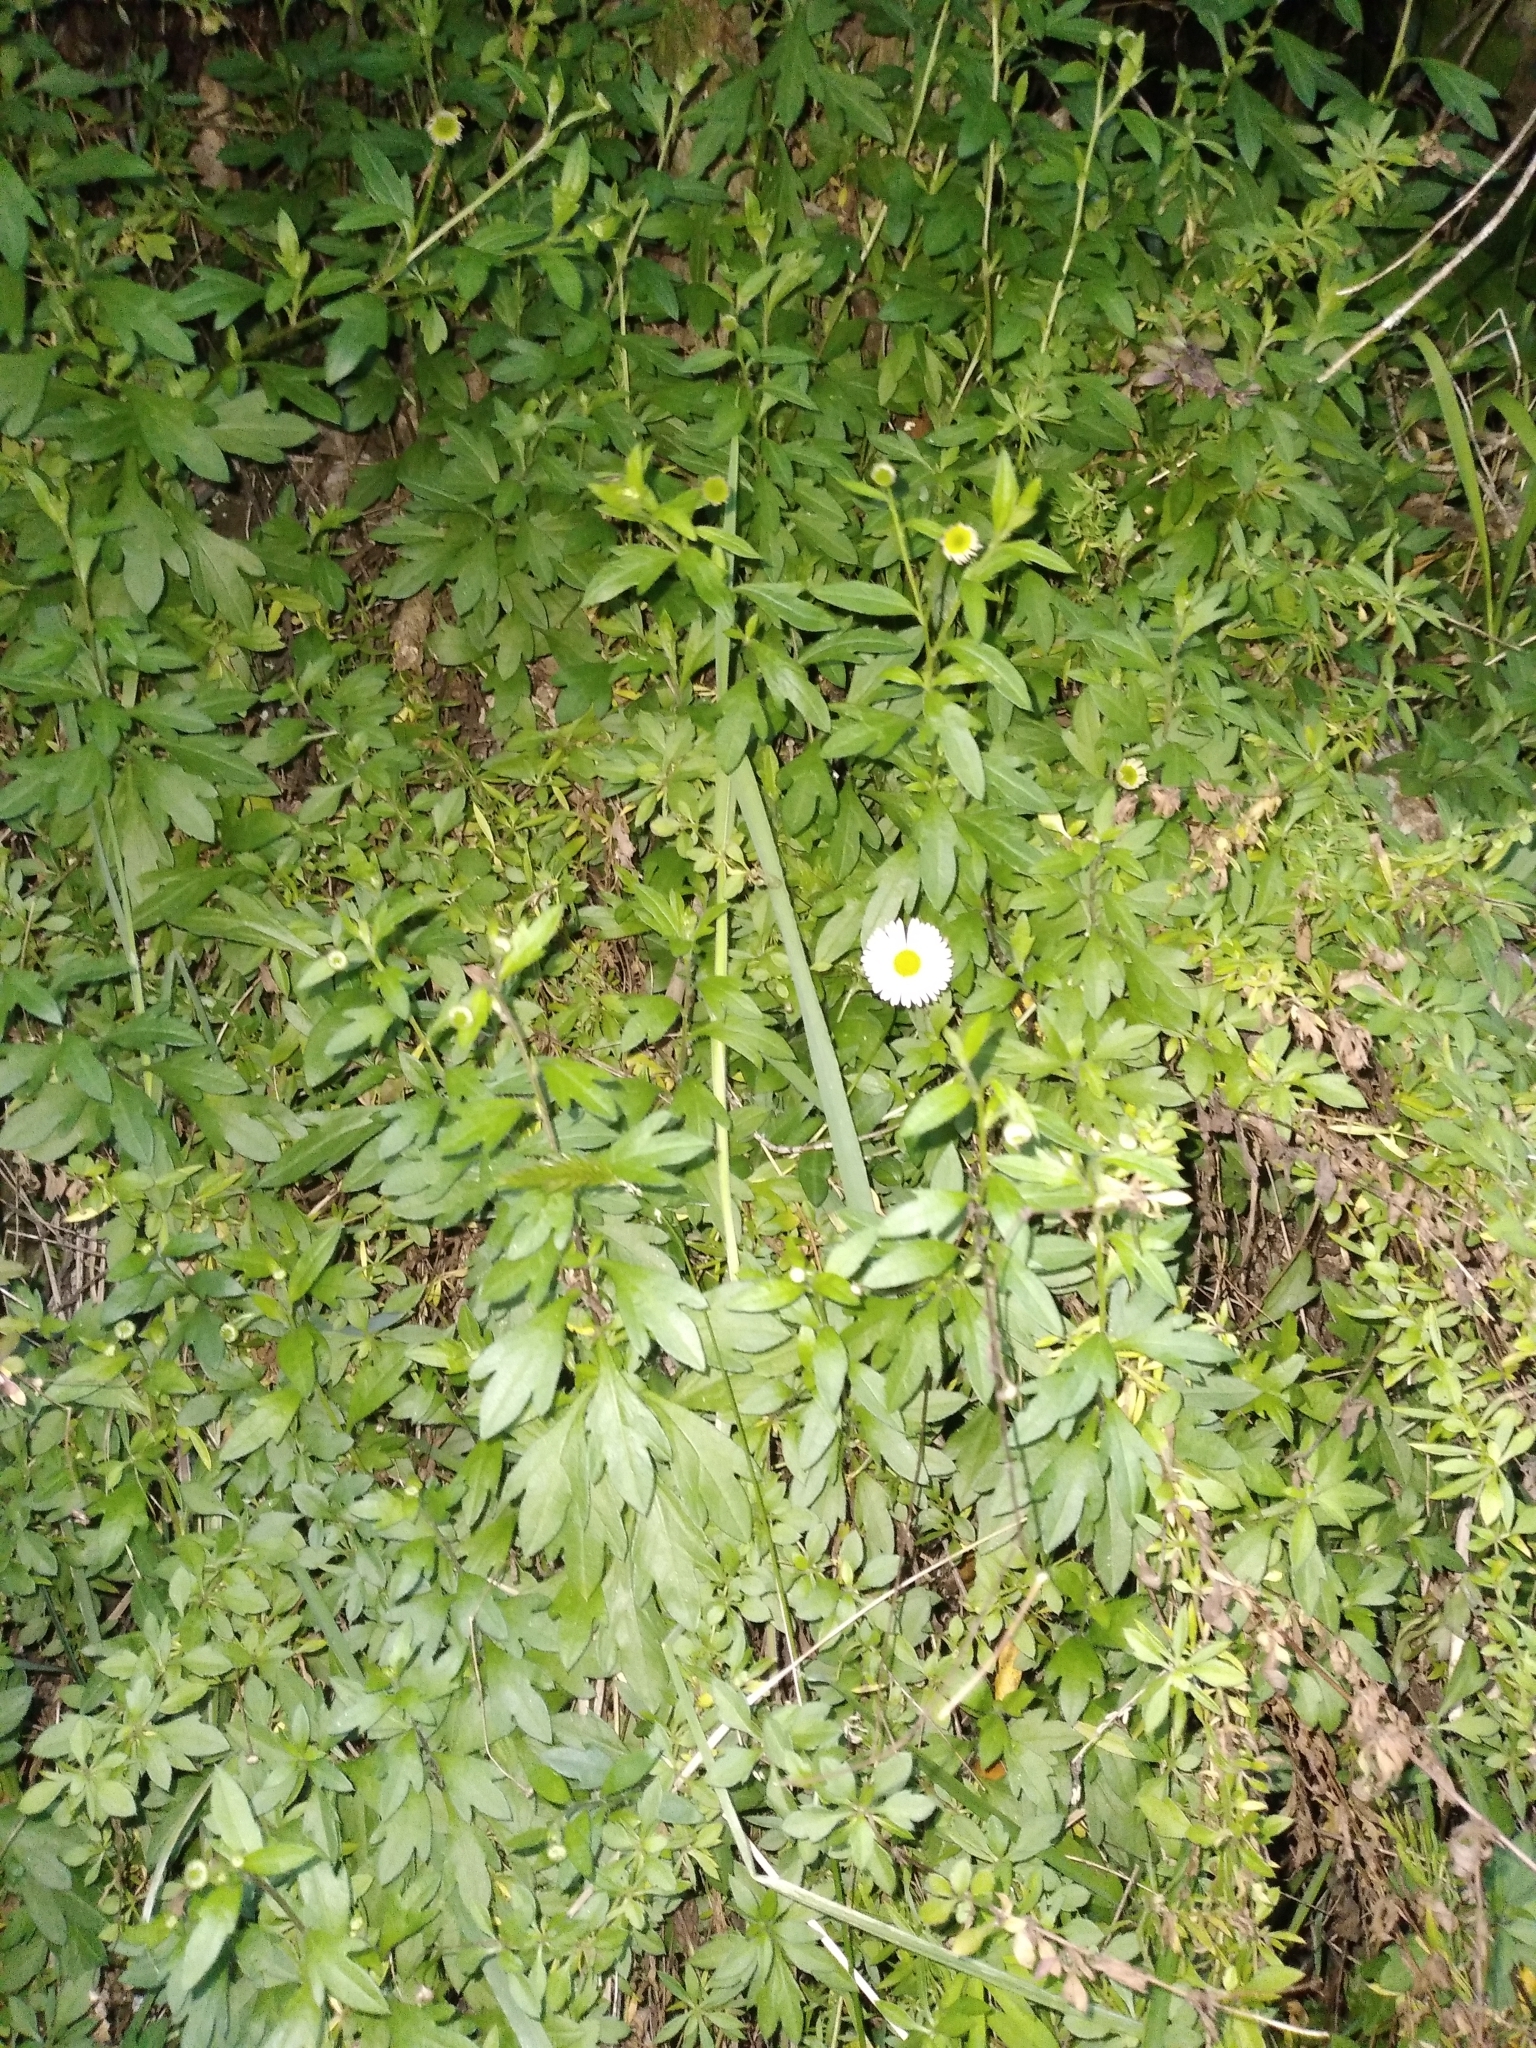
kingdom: Plantae
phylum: Tracheophyta
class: Magnoliopsida
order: Asterales
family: Asteraceae
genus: Erigeron
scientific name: Erigeron karvinskianus
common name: Mexican fleabane
